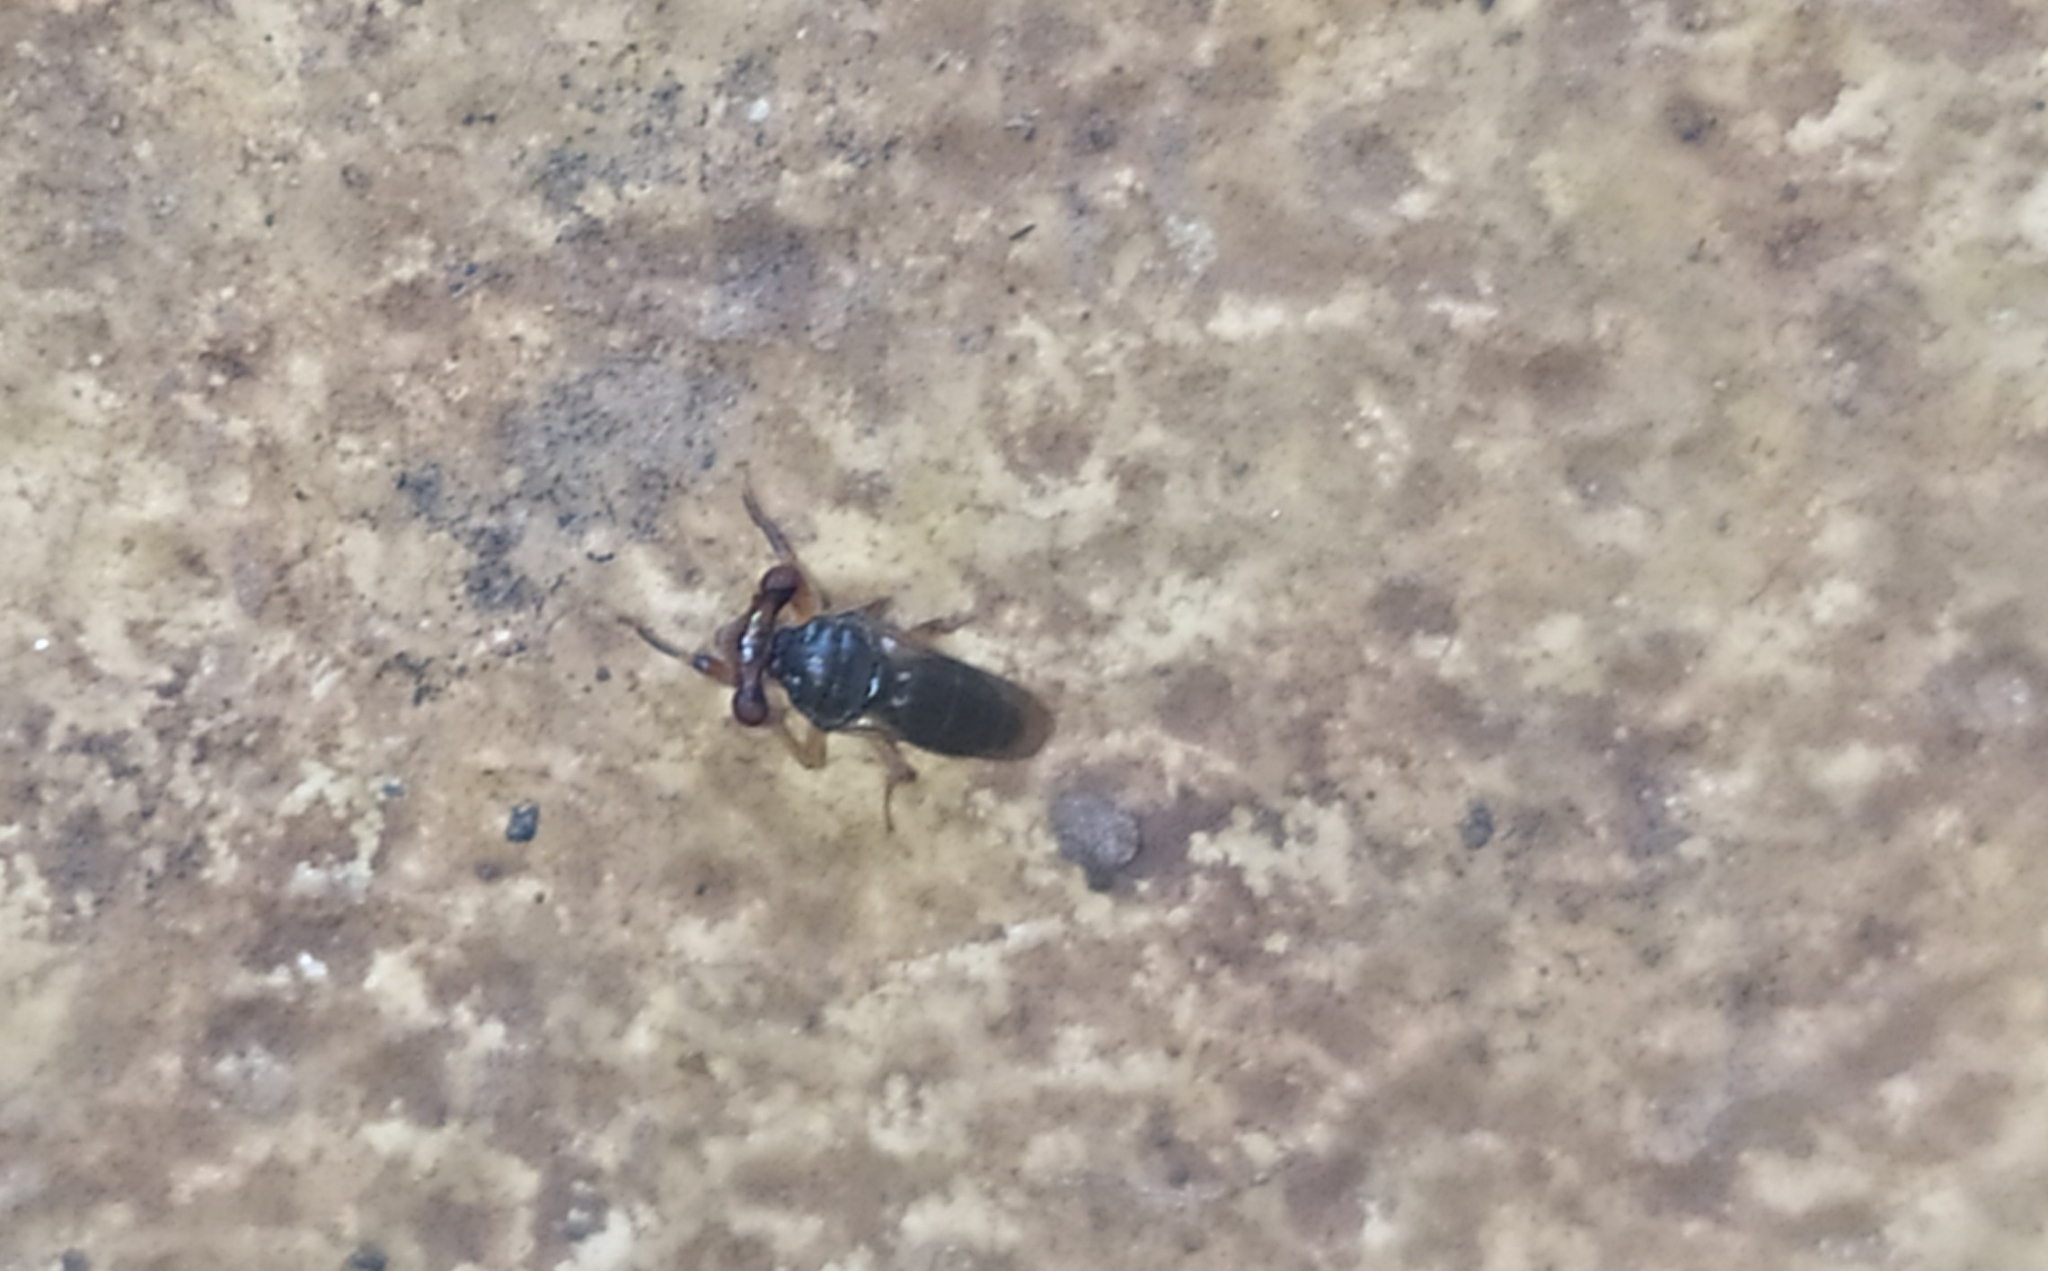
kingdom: Animalia
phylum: Arthropoda
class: Insecta
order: Diptera
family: Diopsidae
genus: Sphyracephala
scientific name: Sphyracephala hearseiana
